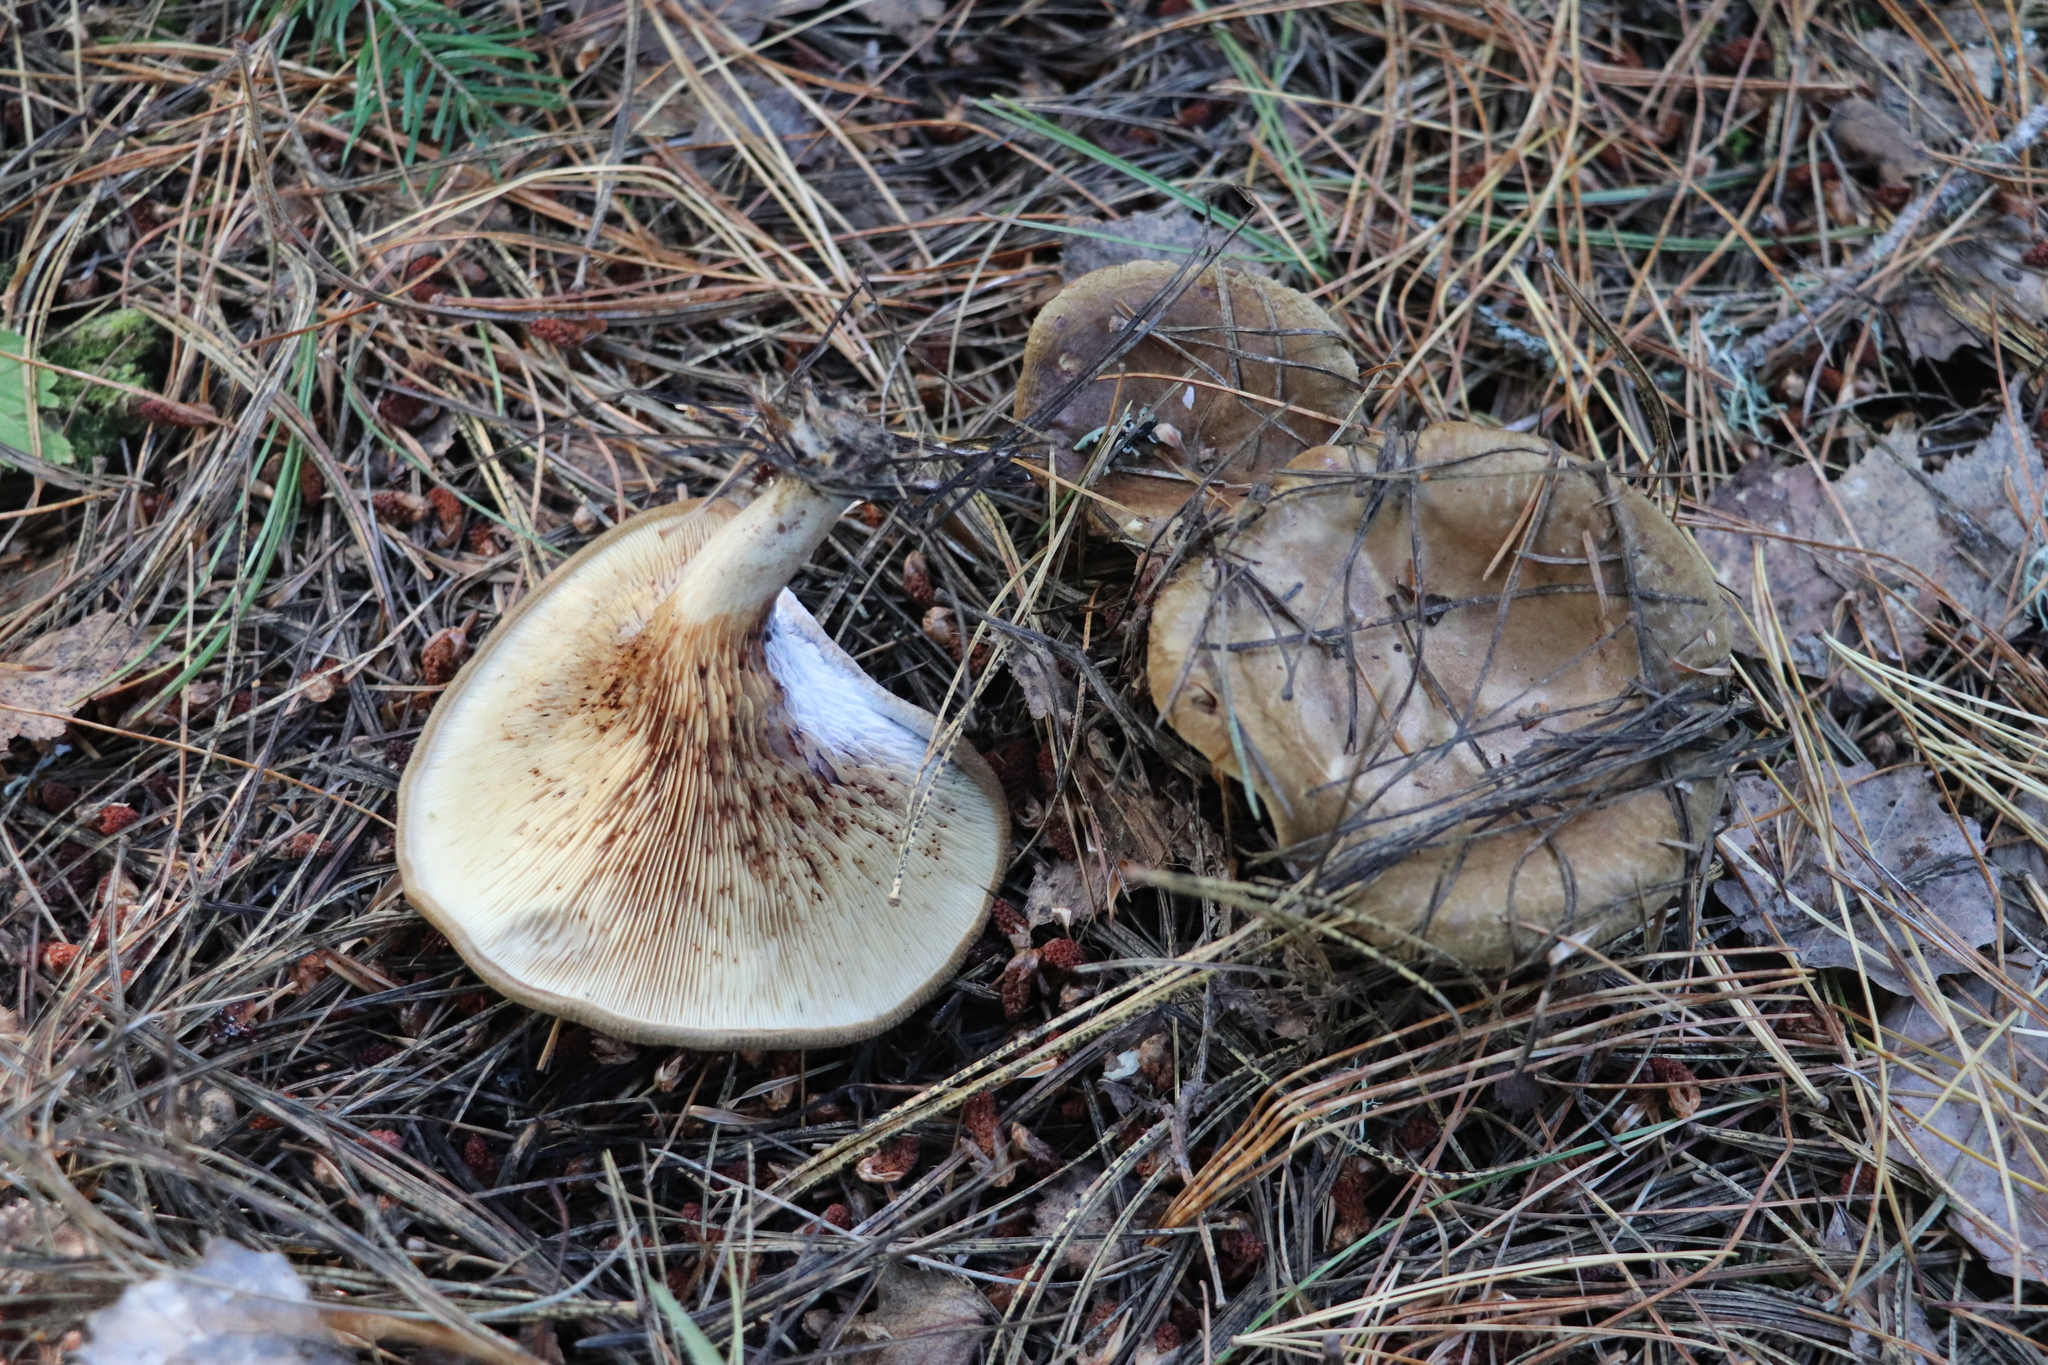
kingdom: Fungi
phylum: Basidiomycota
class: Agaricomycetes
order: Boletales
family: Paxillaceae
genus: Paxillus
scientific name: Paxillus involutus
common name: Brown roll rim
